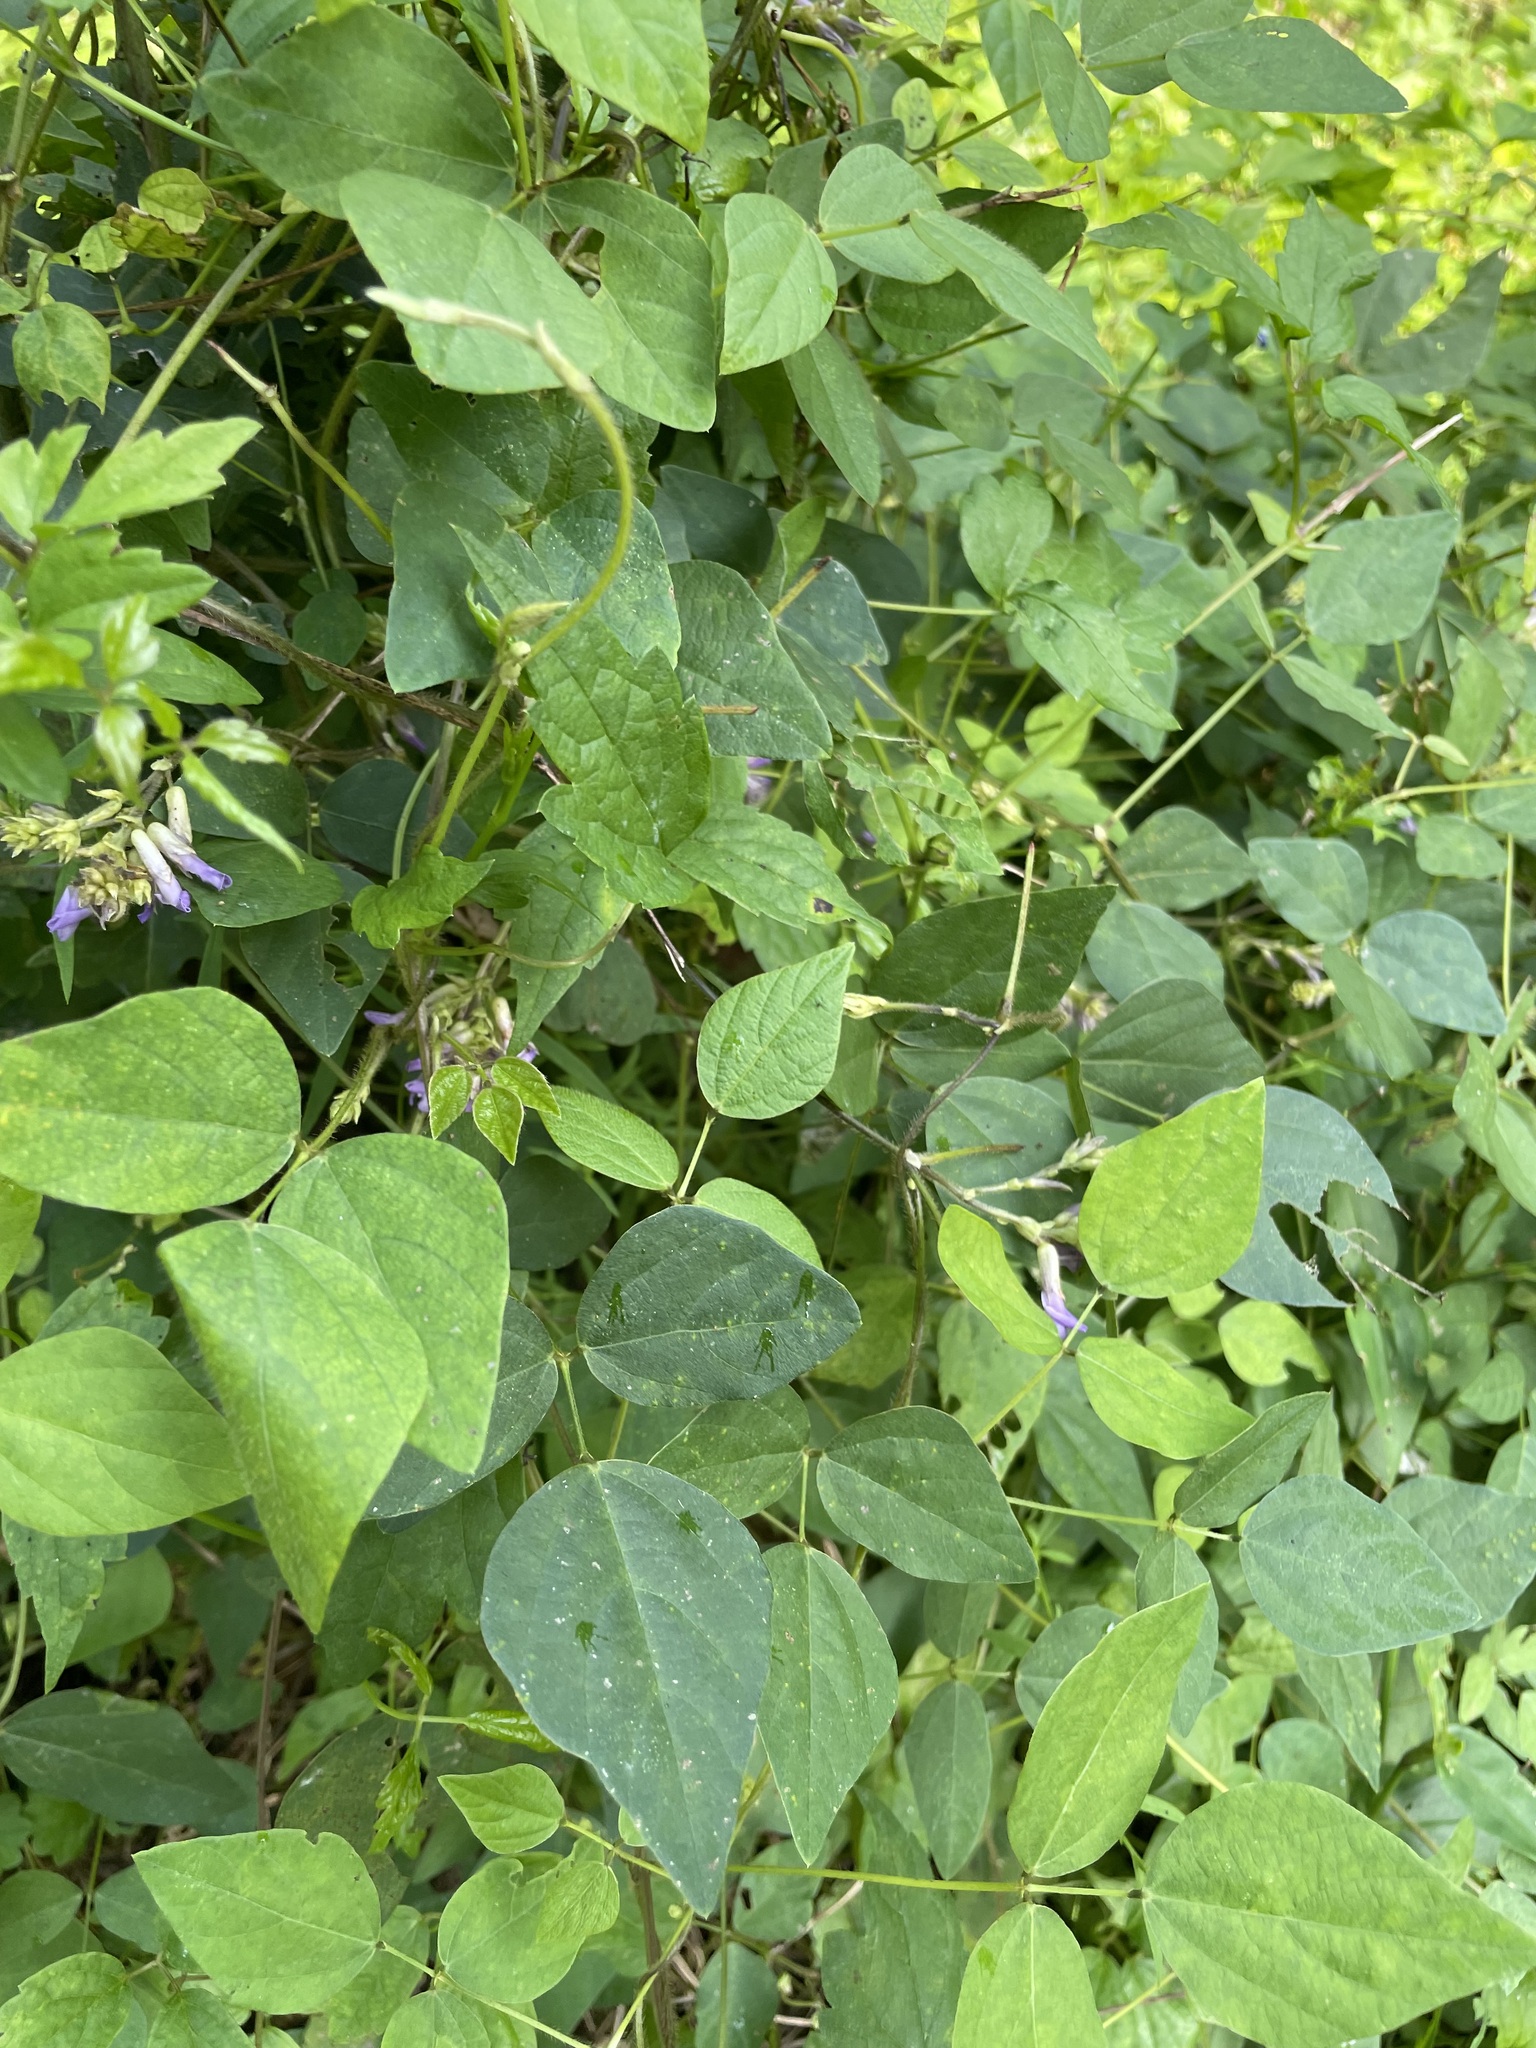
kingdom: Plantae
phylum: Tracheophyta
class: Magnoliopsida
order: Fabales
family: Fabaceae
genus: Amphicarpaea
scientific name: Amphicarpaea bracteata
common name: American hog peanut
